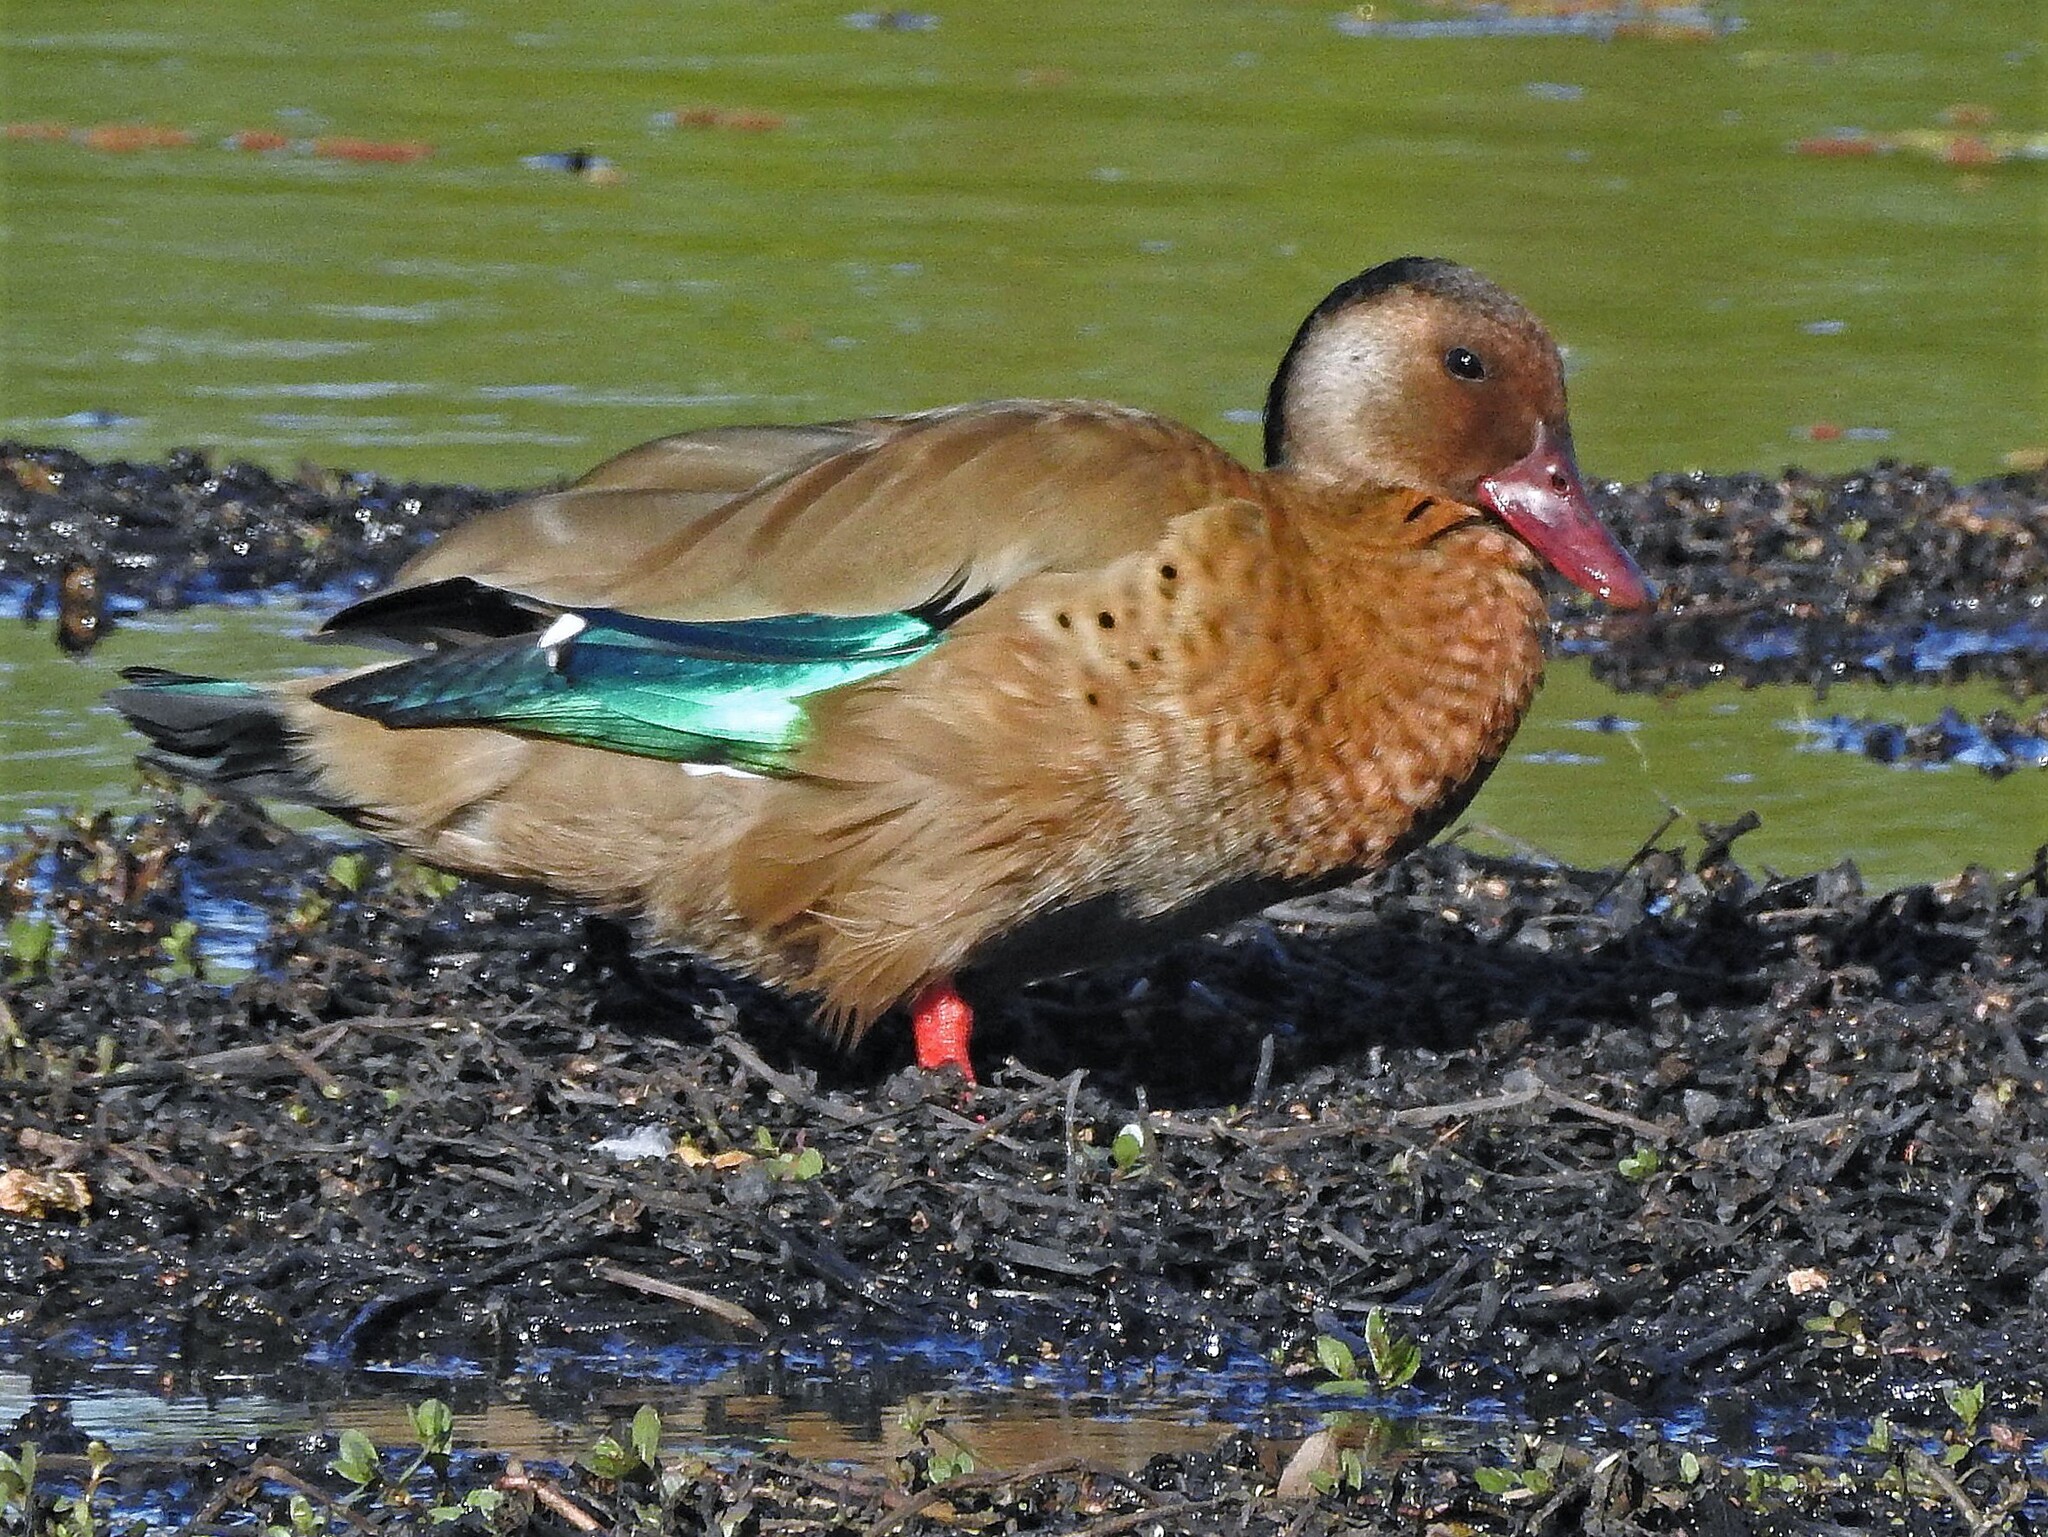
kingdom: Animalia
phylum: Chordata
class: Aves
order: Anseriformes
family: Anatidae
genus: Amazonetta
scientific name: Amazonetta brasiliensis
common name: Brazilian teal
